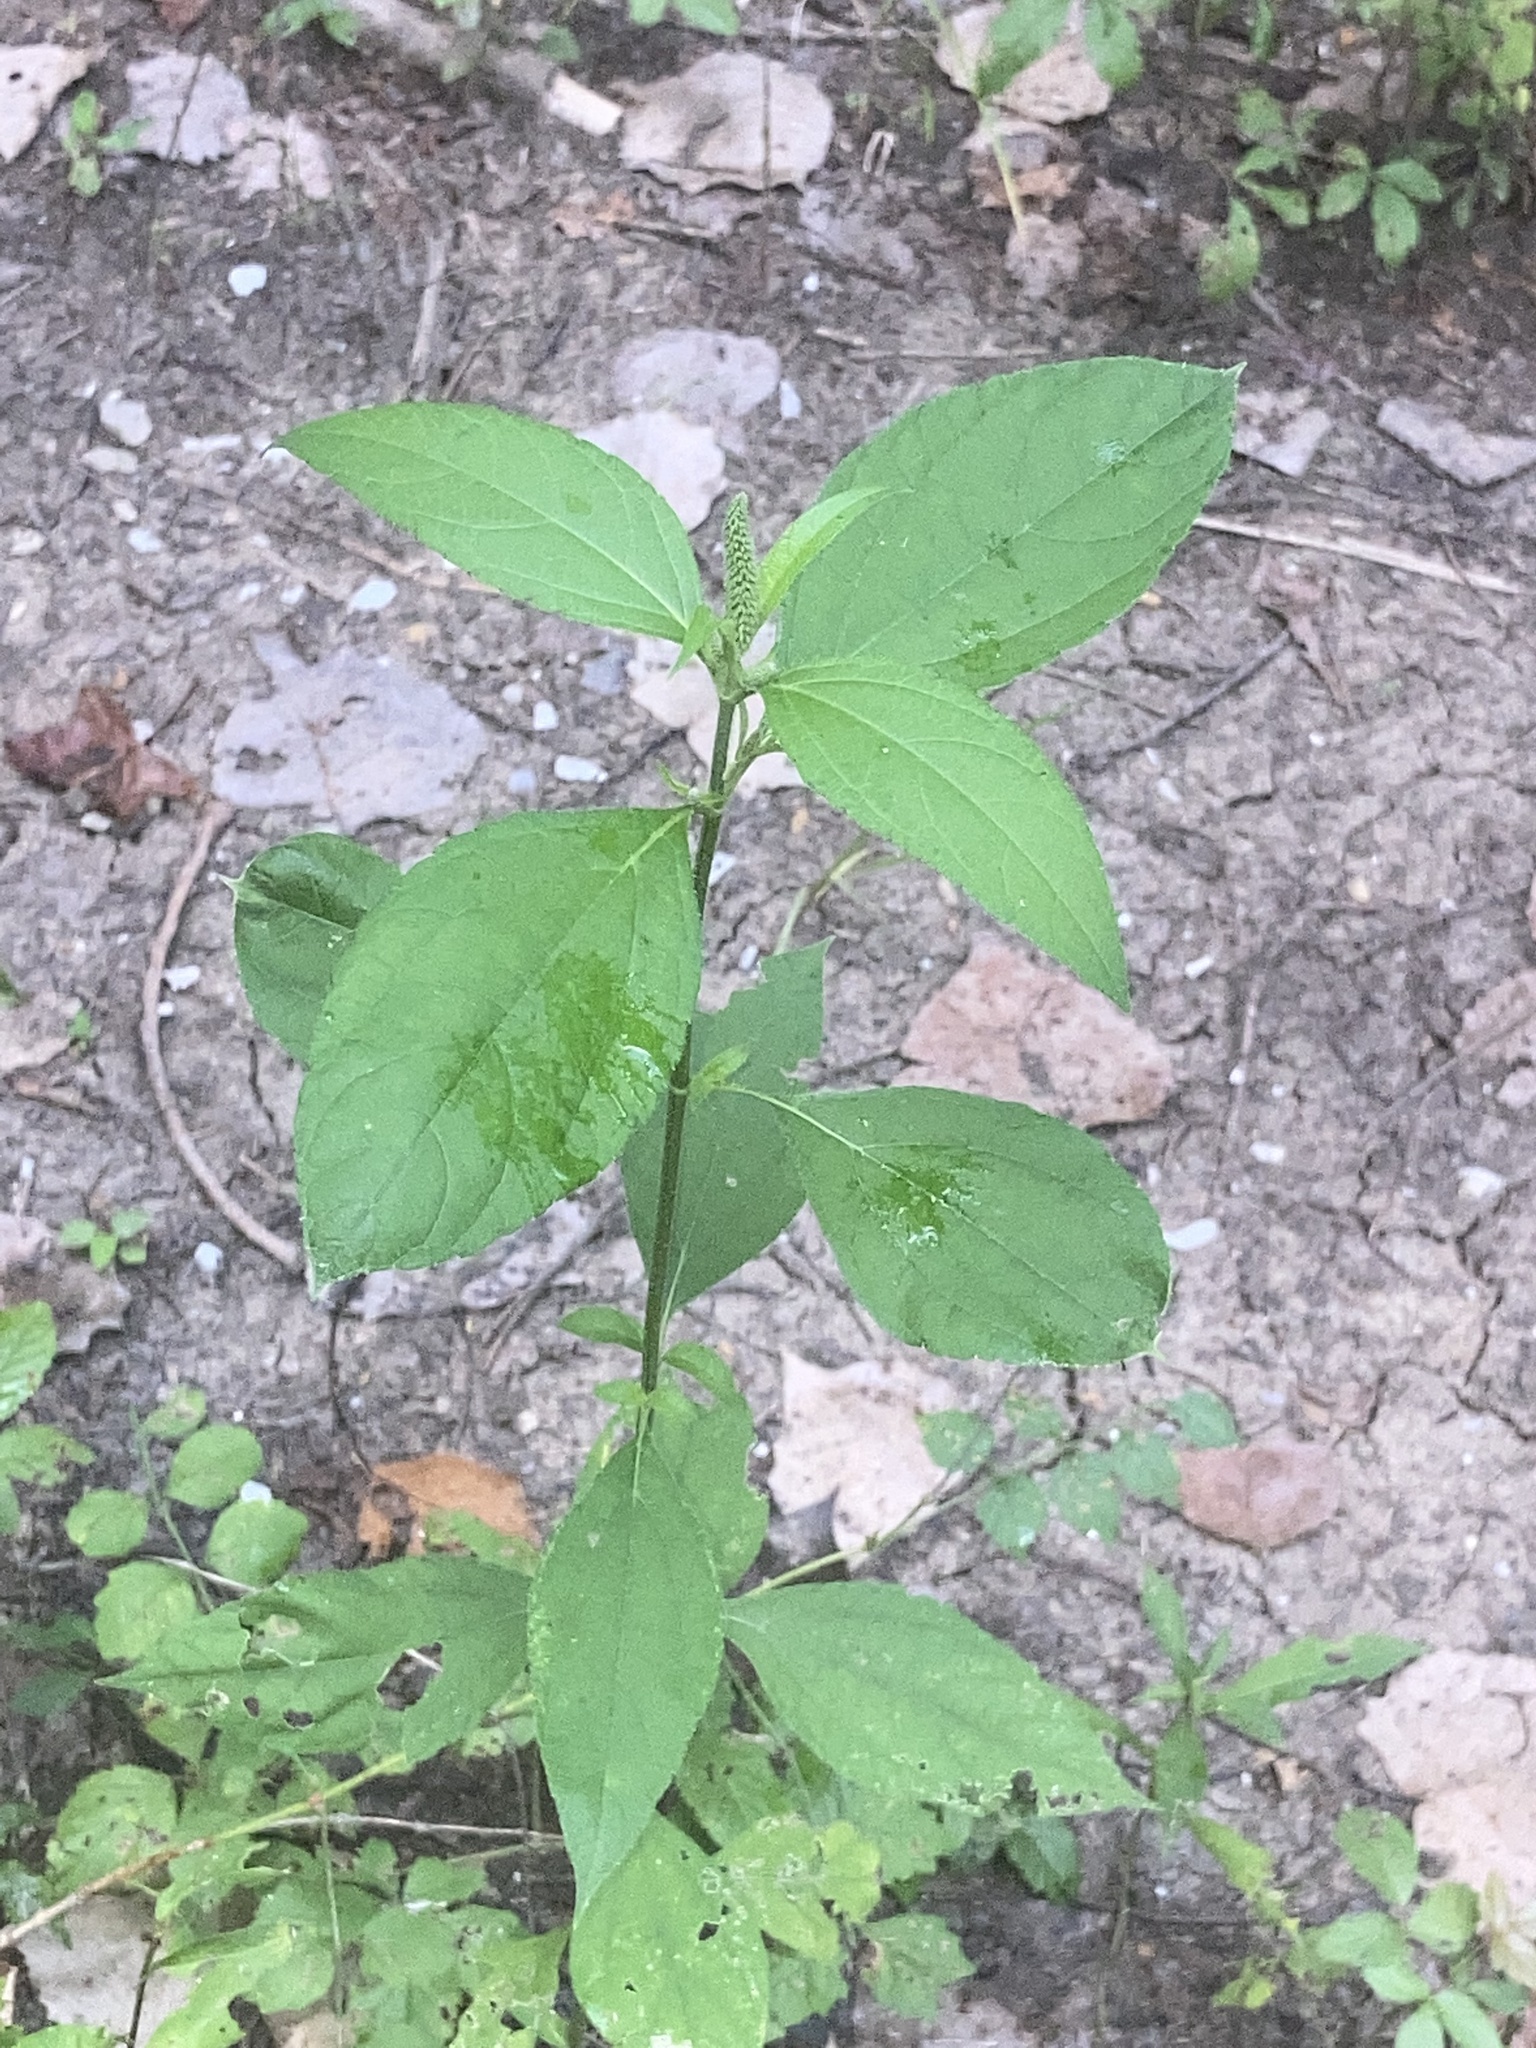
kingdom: Plantae
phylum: Tracheophyta
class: Magnoliopsida
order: Asterales
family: Asteraceae
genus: Ambrosia
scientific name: Ambrosia trifida
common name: Giant ragweed
